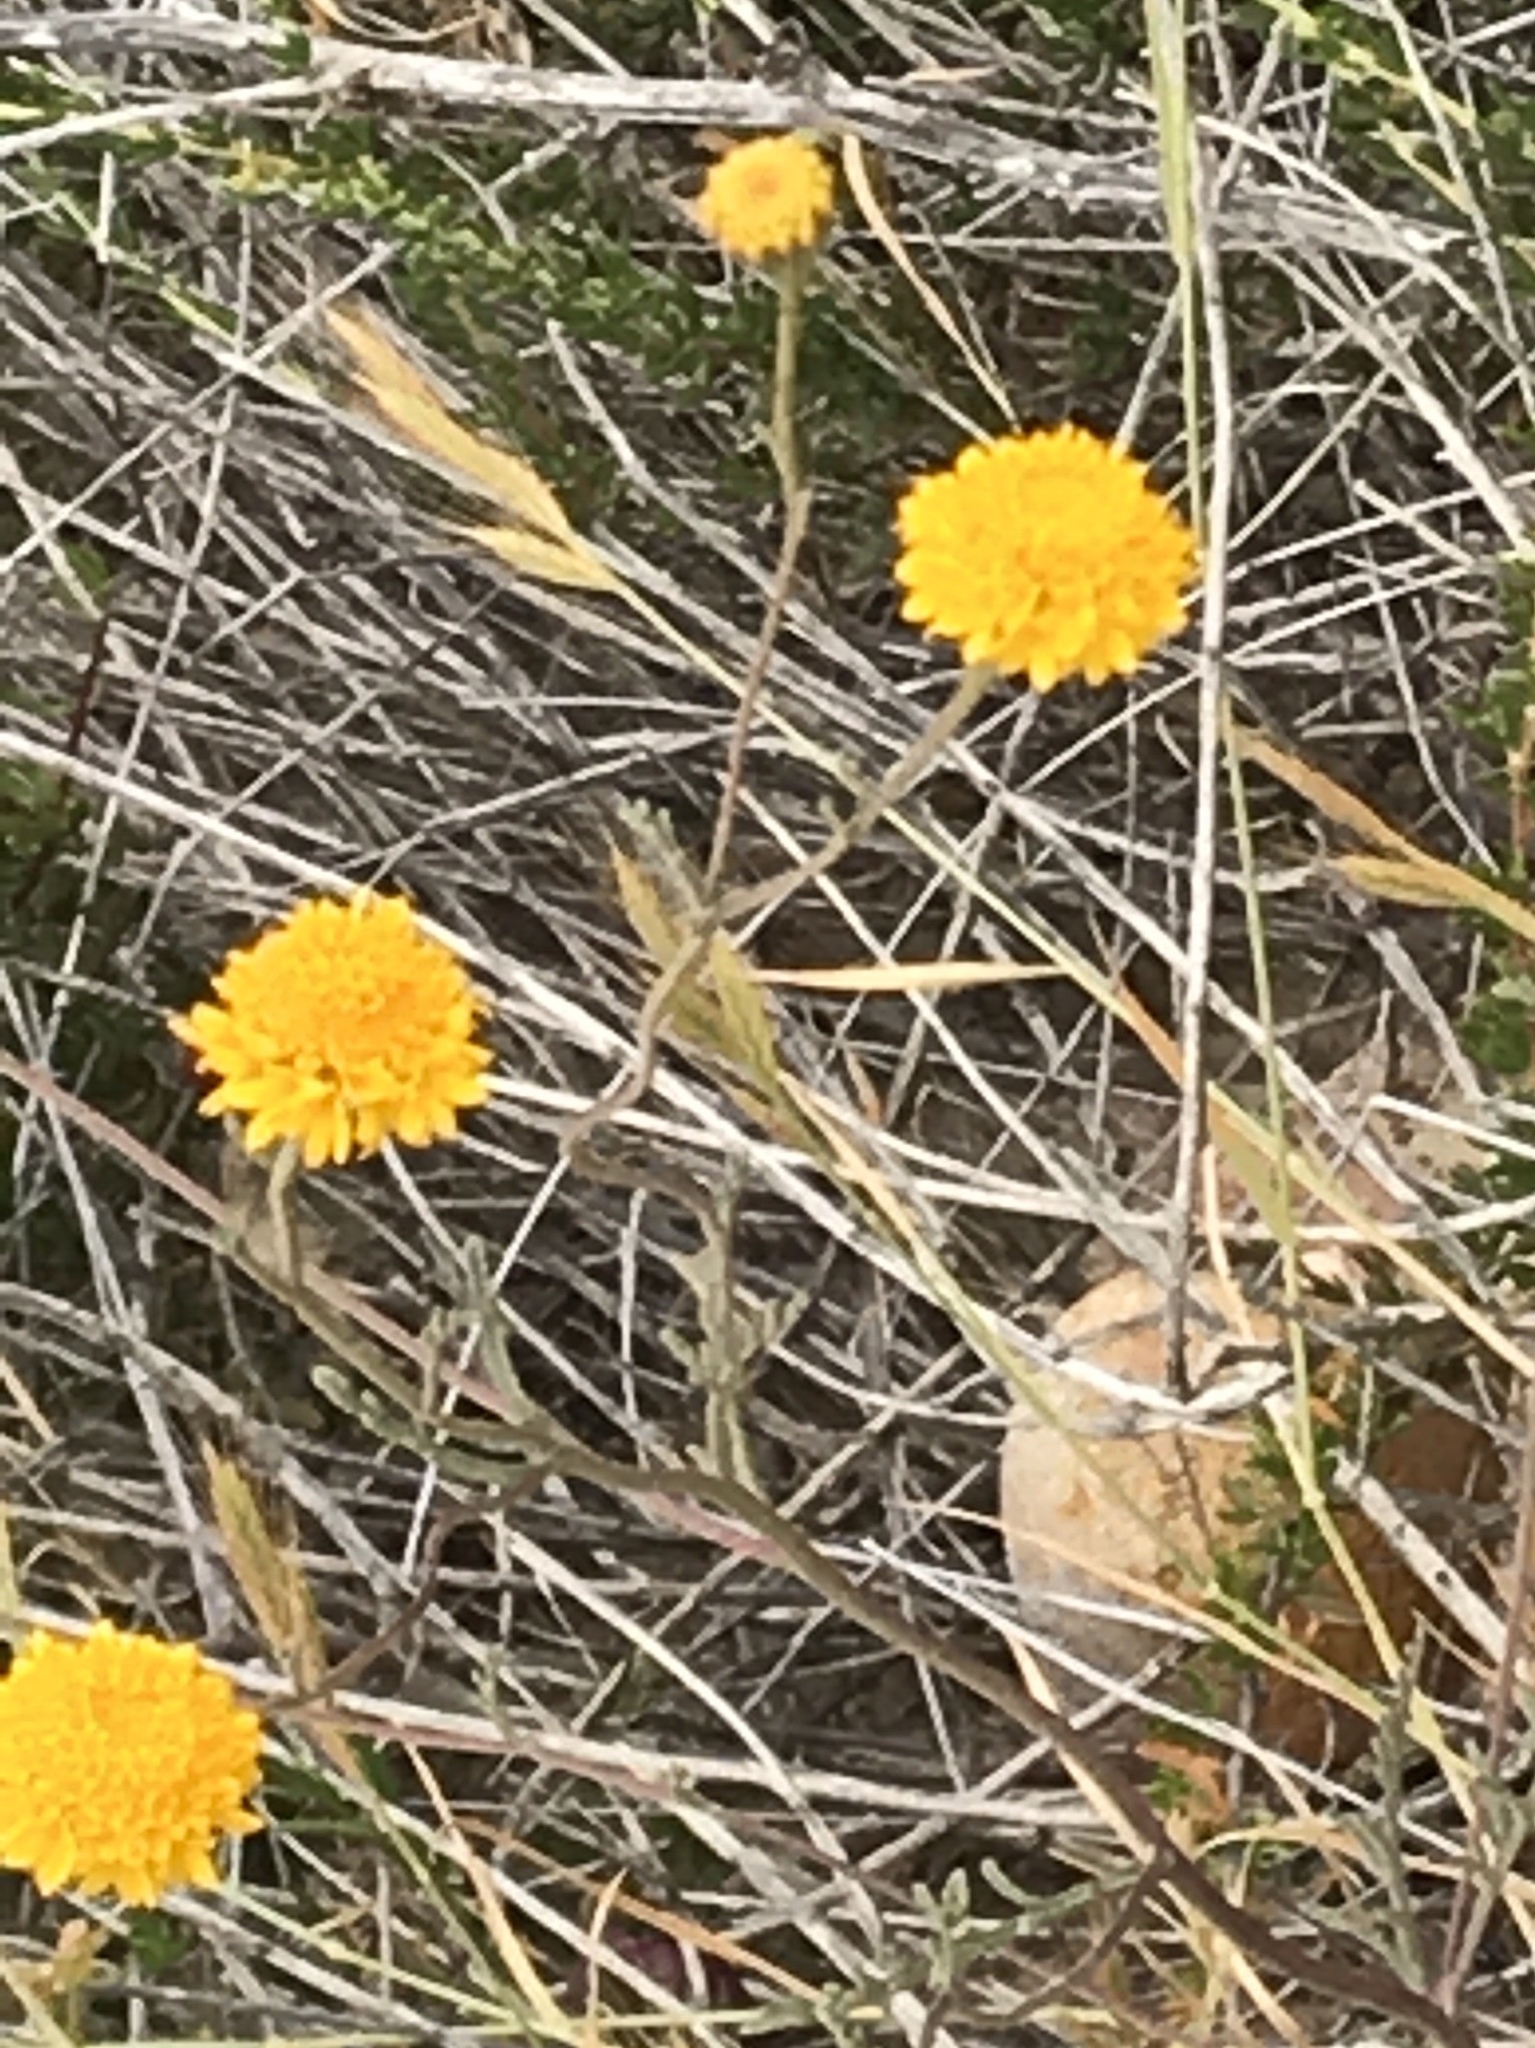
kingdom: Plantae
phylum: Tracheophyta
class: Magnoliopsida
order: Asterales
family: Asteraceae
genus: Chaenactis
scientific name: Chaenactis glabriuscula
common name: Yellow pincushion
